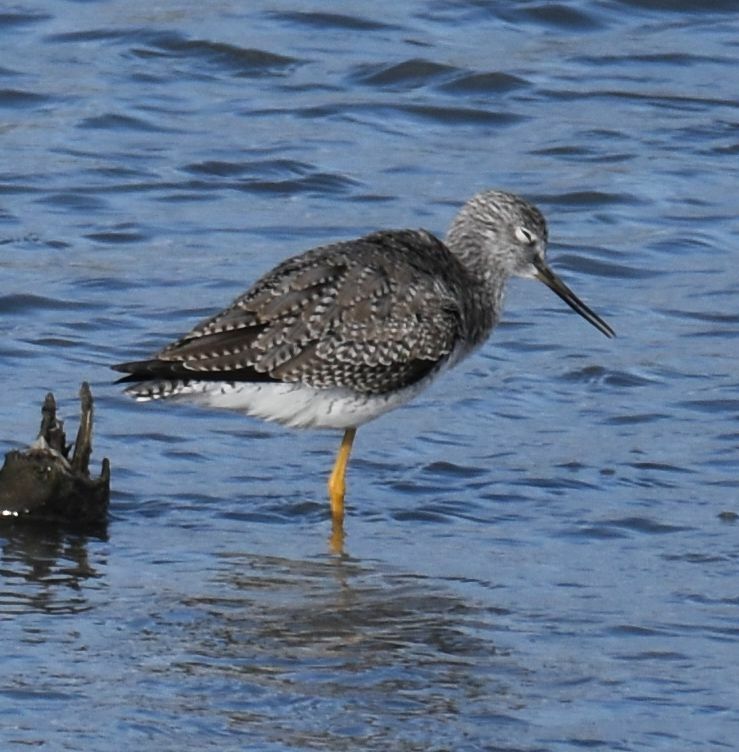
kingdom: Animalia
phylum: Chordata
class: Aves
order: Charadriiformes
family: Scolopacidae
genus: Tringa
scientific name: Tringa melanoleuca
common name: Greater yellowlegs
